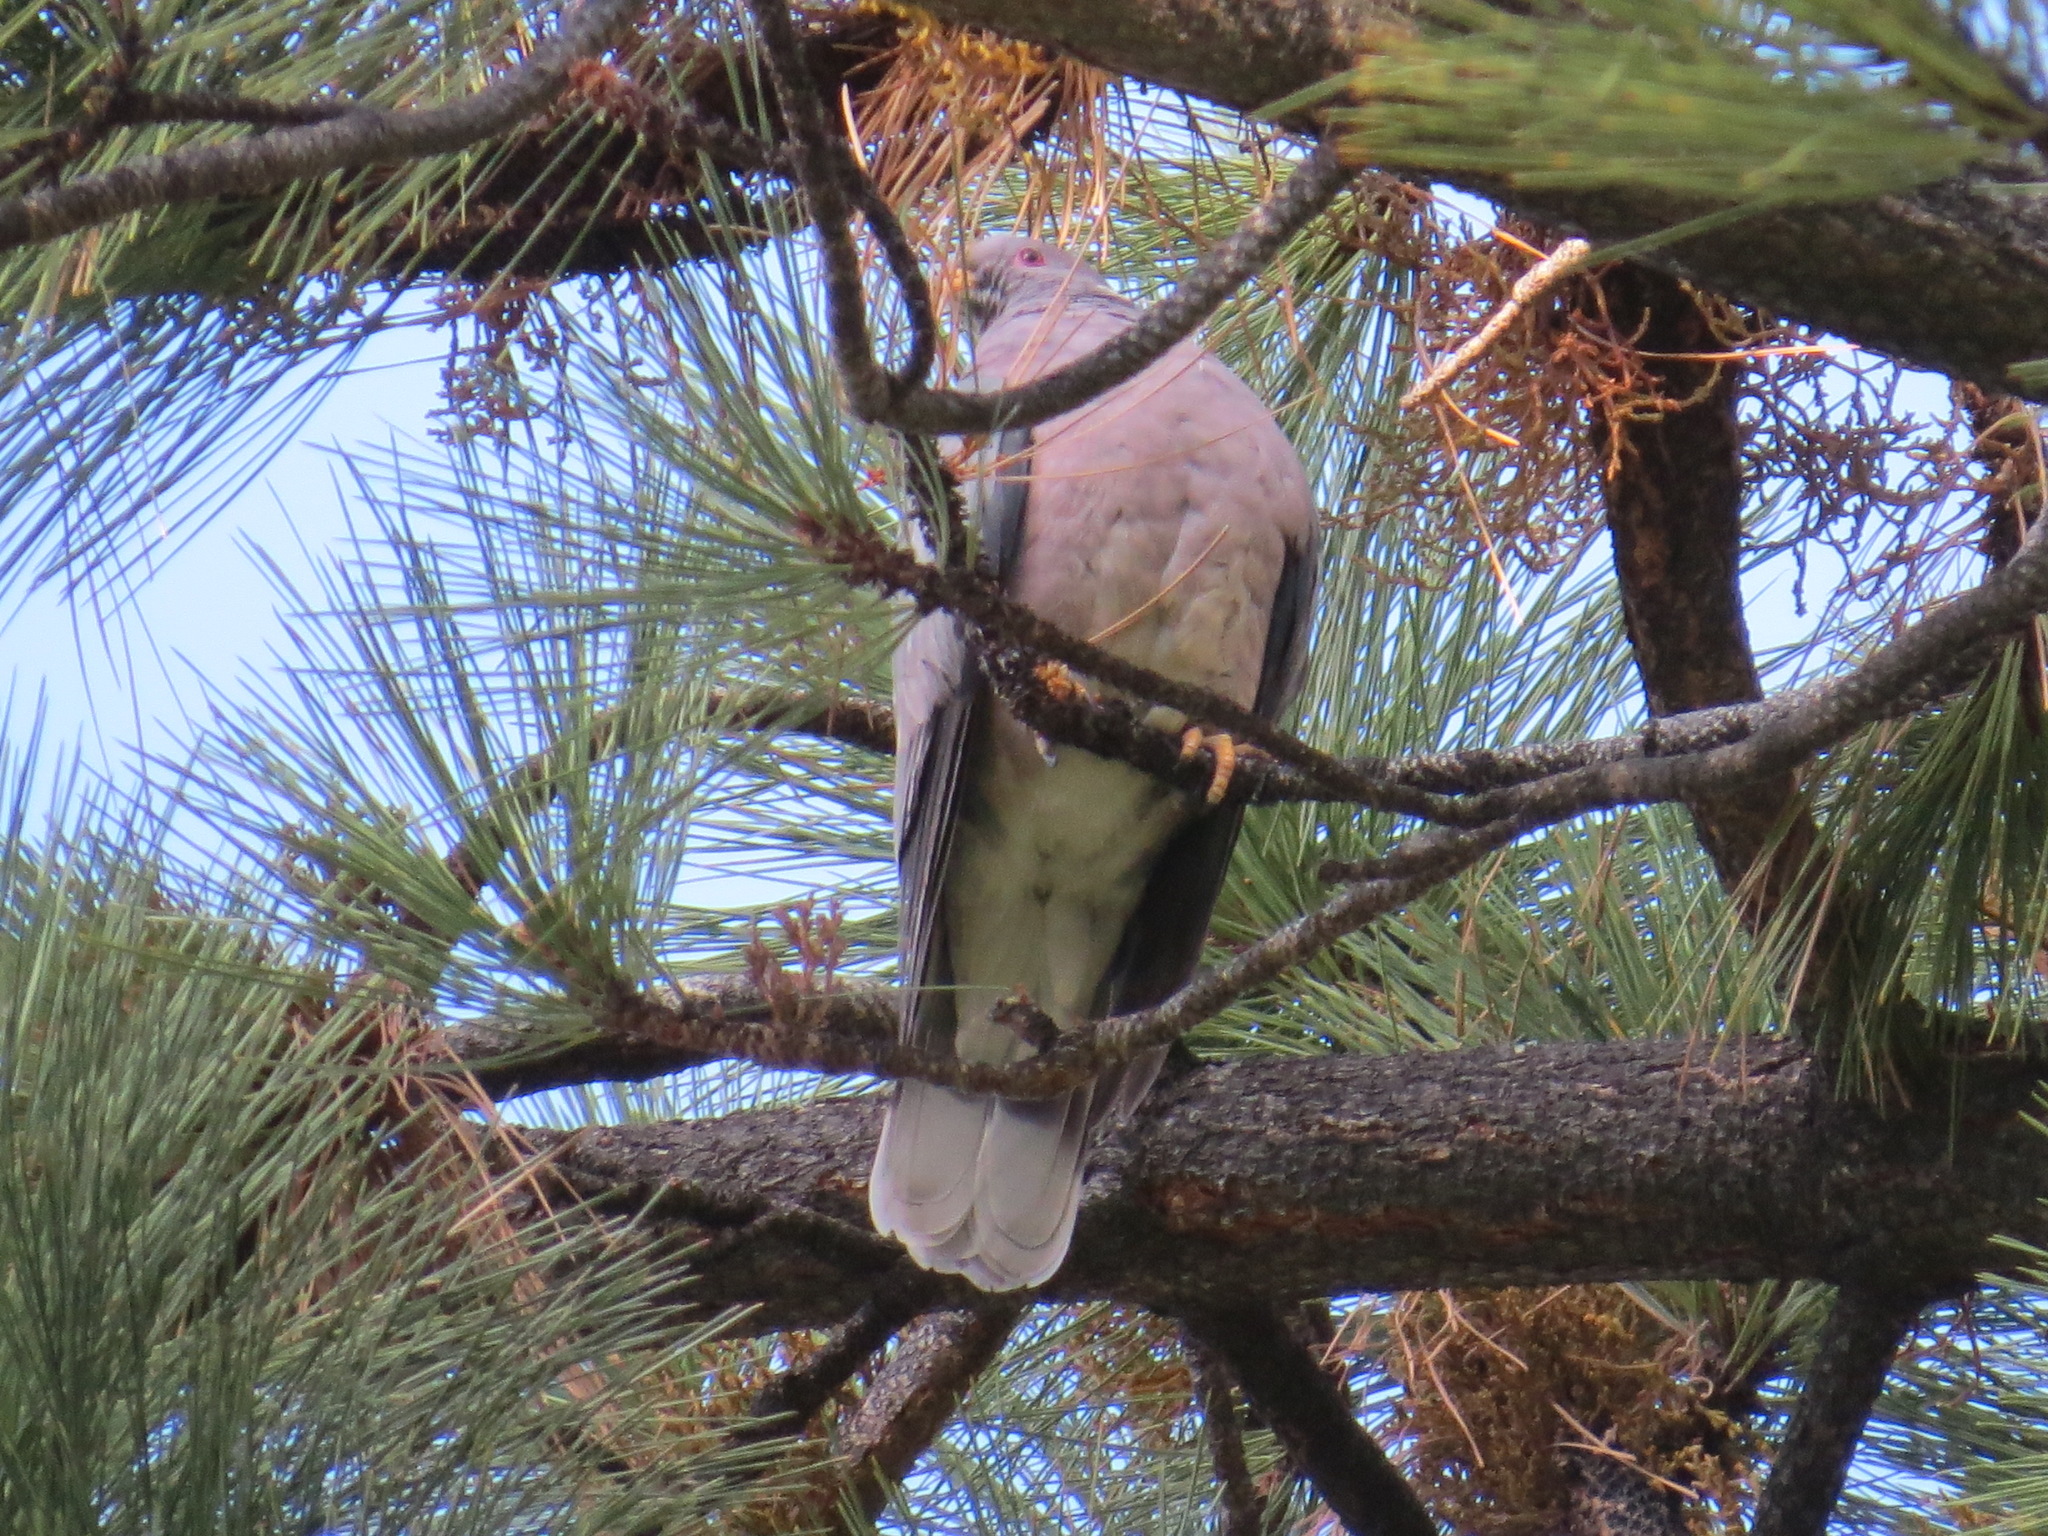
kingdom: Animalia
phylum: Chordata
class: Aves
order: Columbiformes
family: Columbidae
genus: Patagioenas
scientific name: Patagioenas fasciata
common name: Band-tailed pigeon
